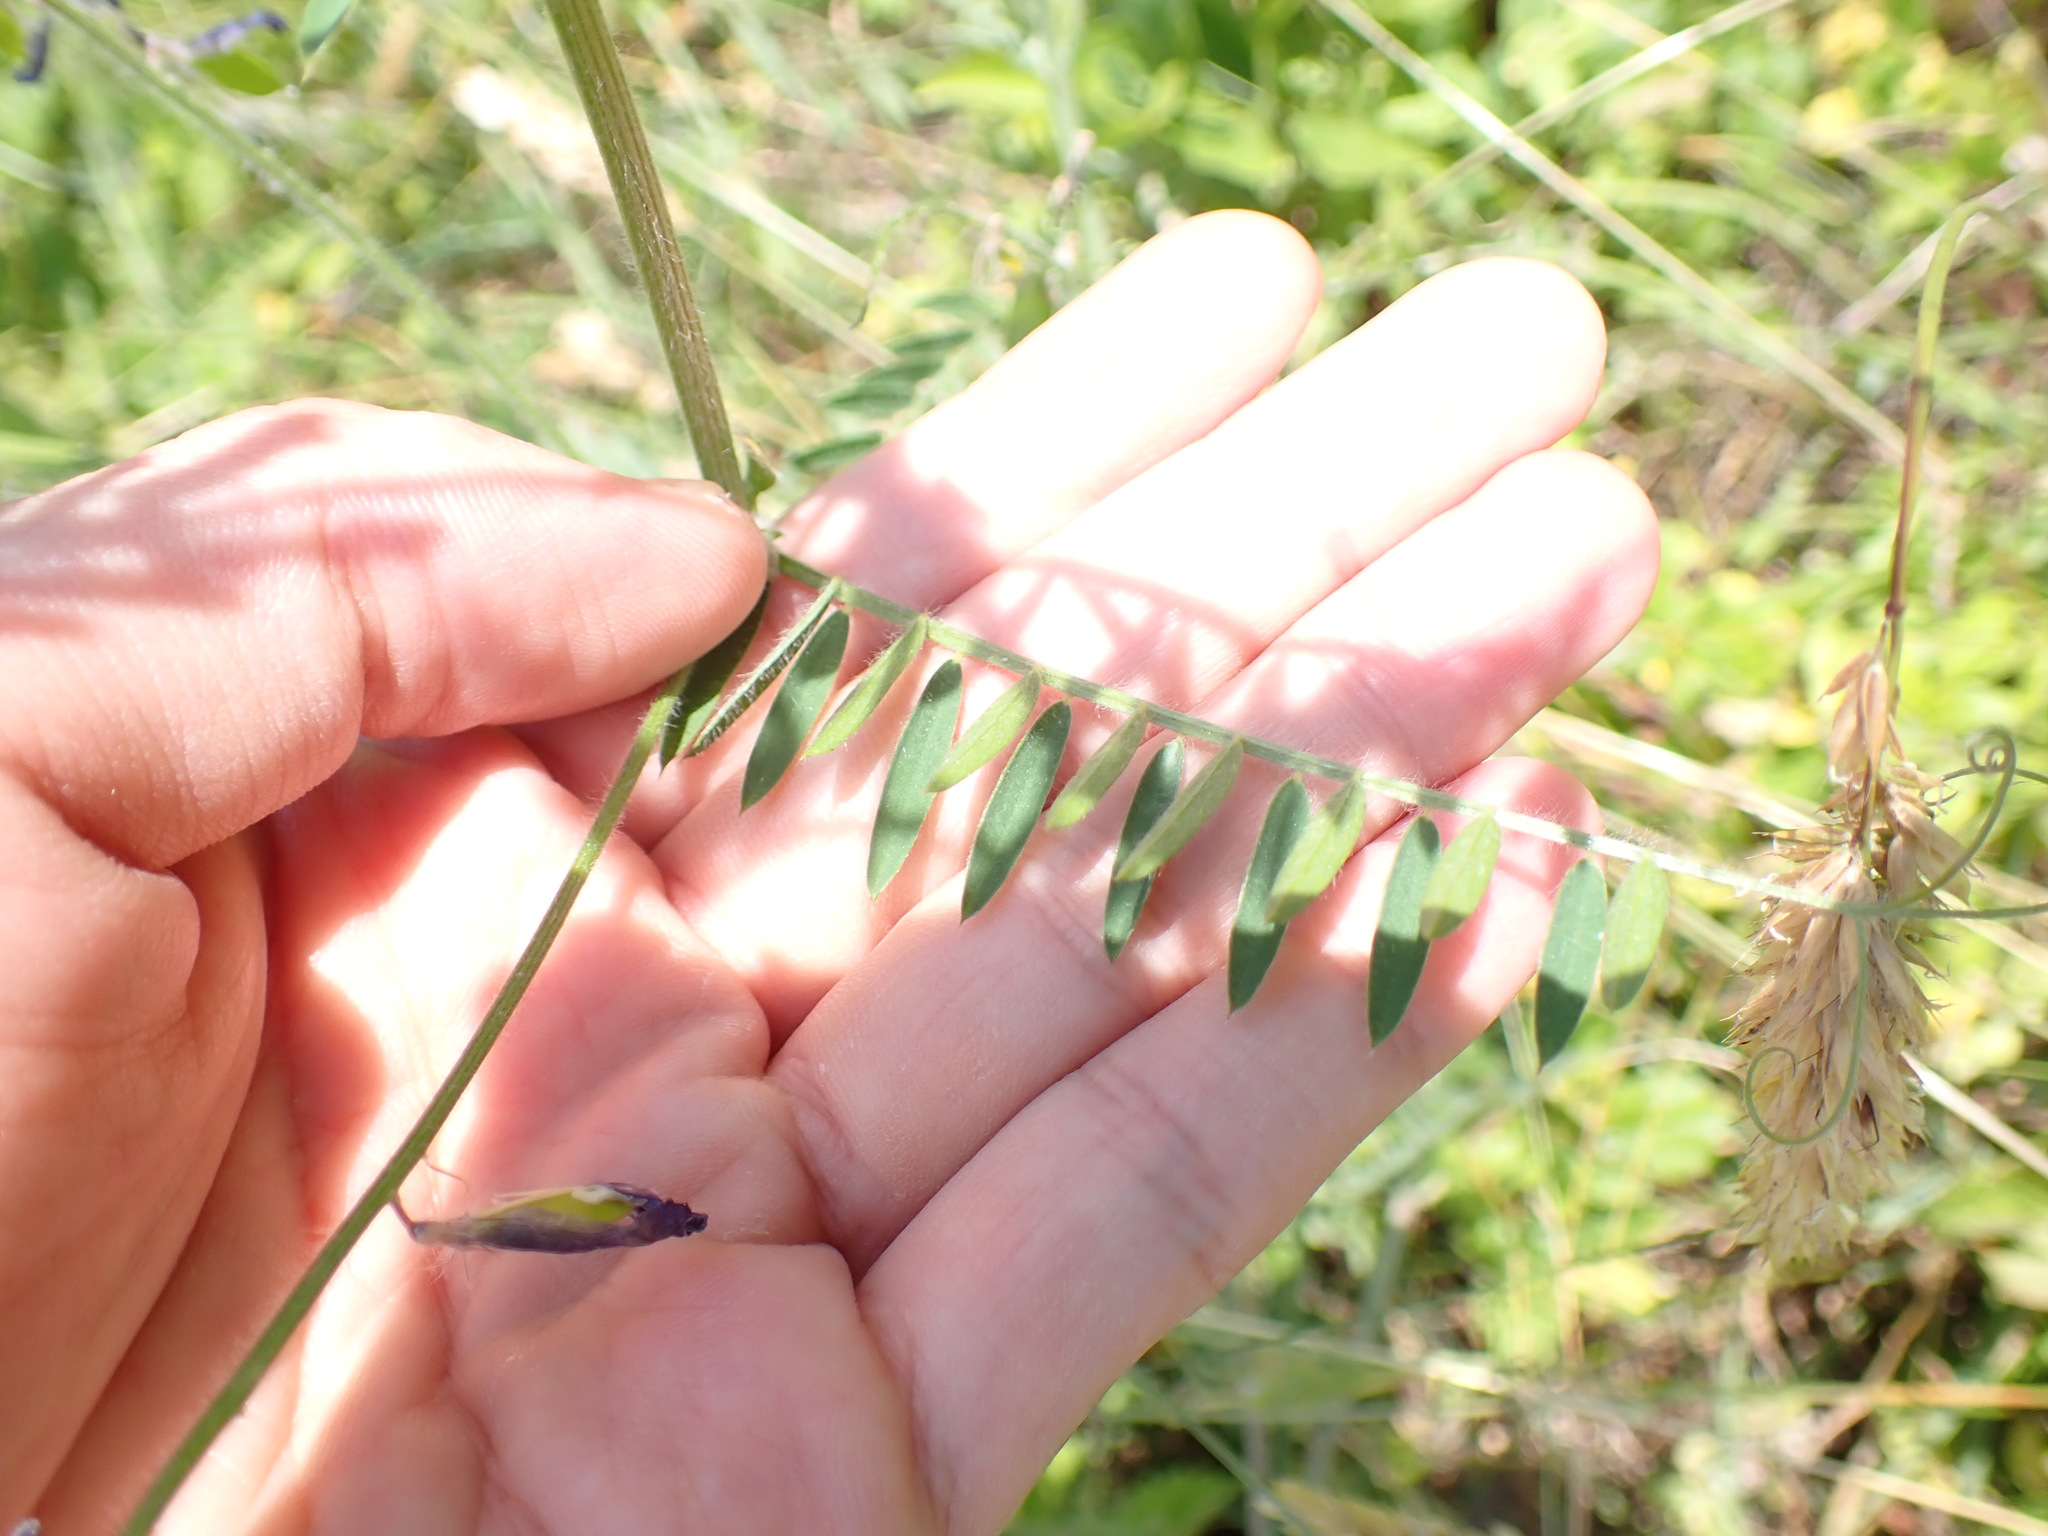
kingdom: Plantae
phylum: Tracheophyta
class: Magnoliopsida
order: Fabales
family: Fabaceae
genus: Vicia
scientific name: Vicia villosa
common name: Fodder vetch
